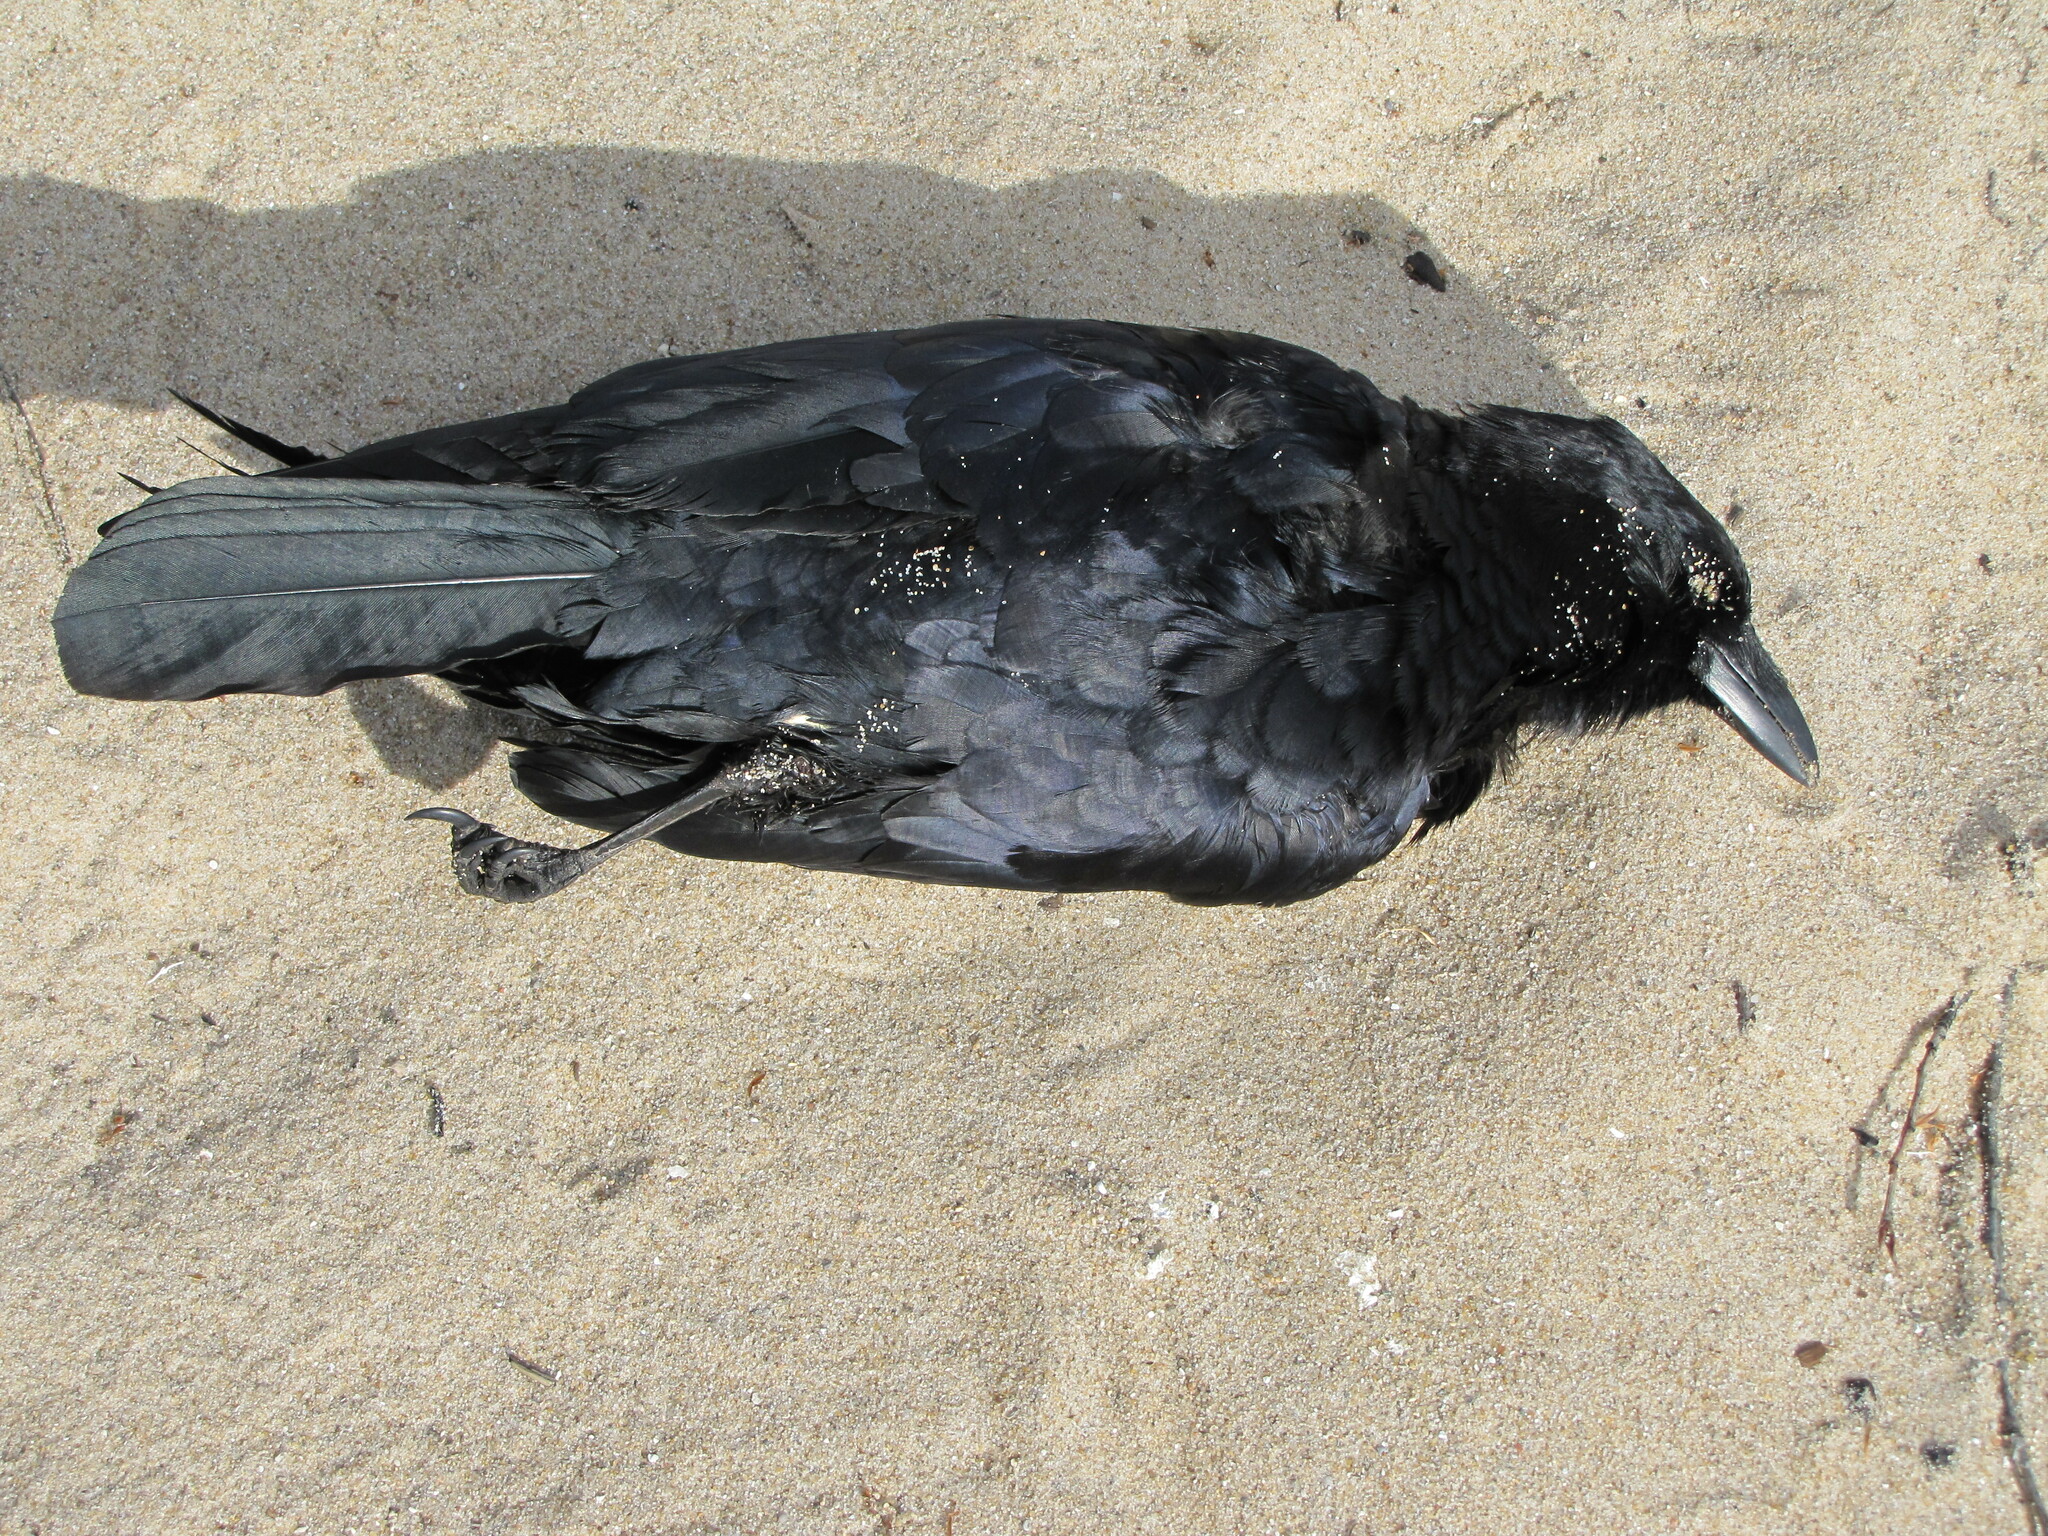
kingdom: Animalia
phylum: Chordata
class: Aves
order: Passeriformes
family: Corvidae
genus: Corvus
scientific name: Corvus brachyrhynchos
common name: American crow
